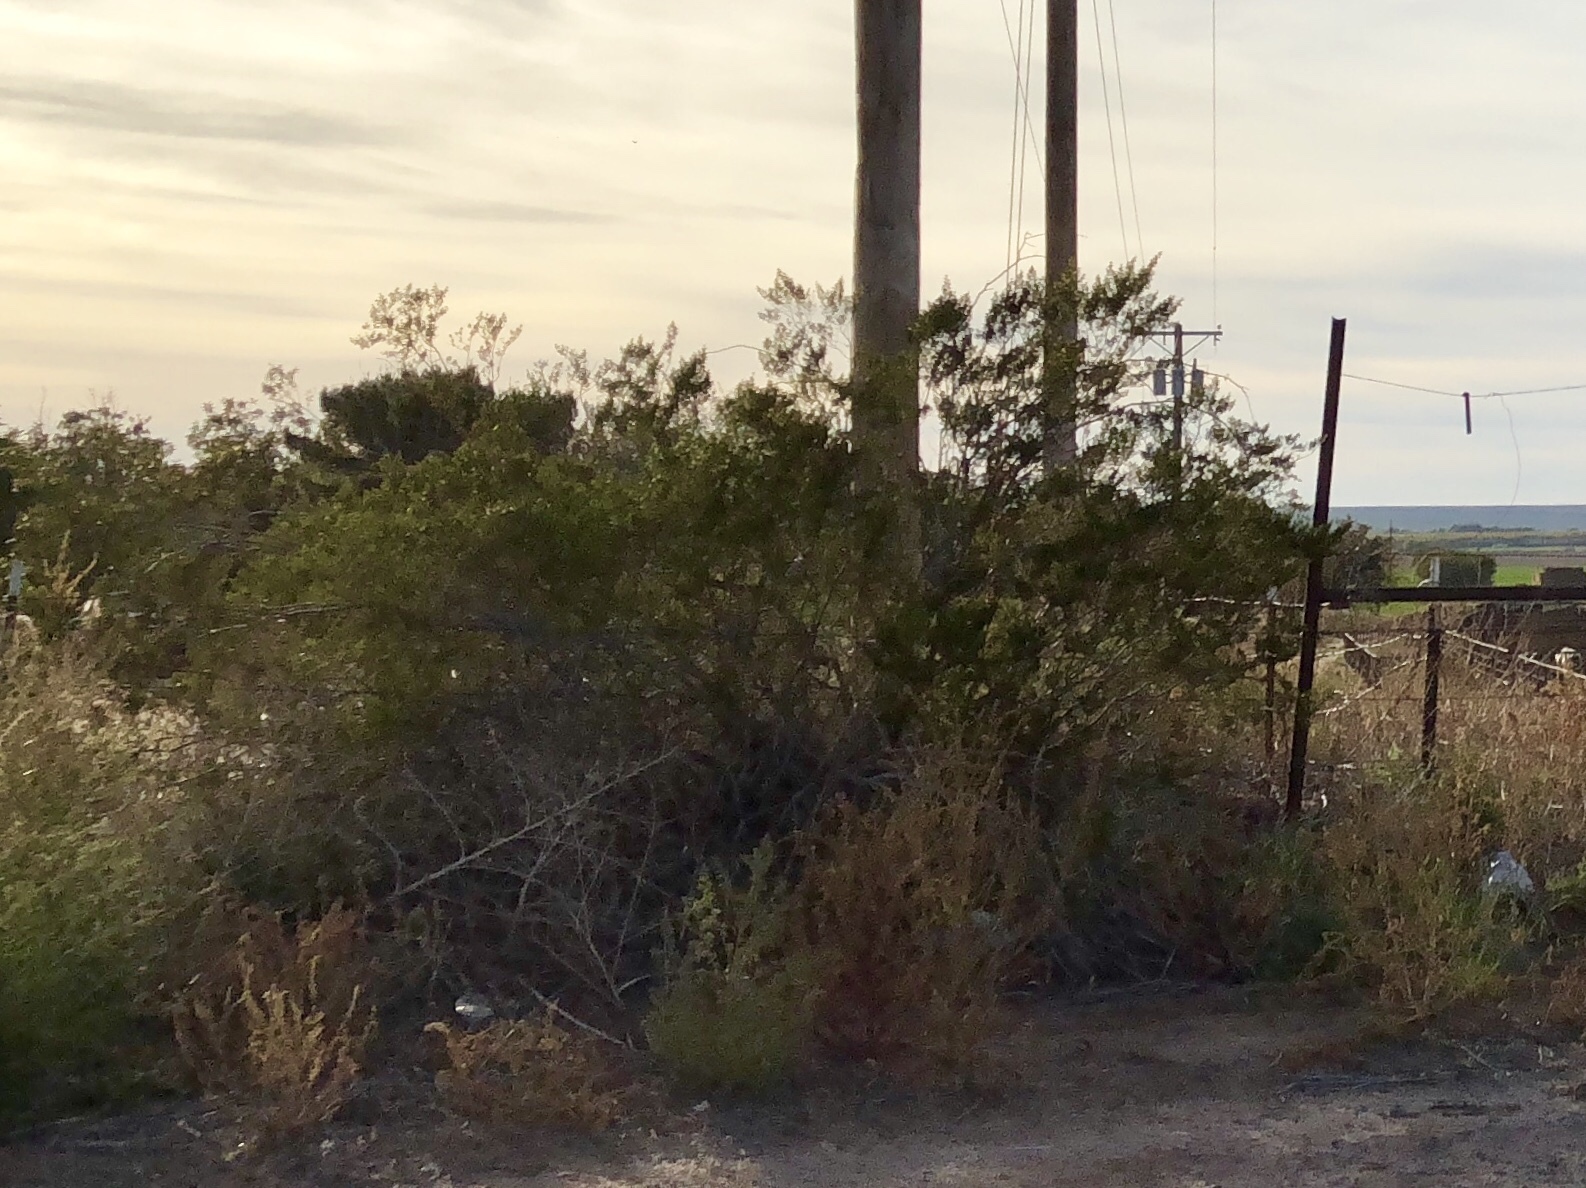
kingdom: Plantae
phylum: Tracheophyta
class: Magnoliopsida
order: Zygophyllales
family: Zygophyllaceae
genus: Larrea
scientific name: Larrea tridentata
